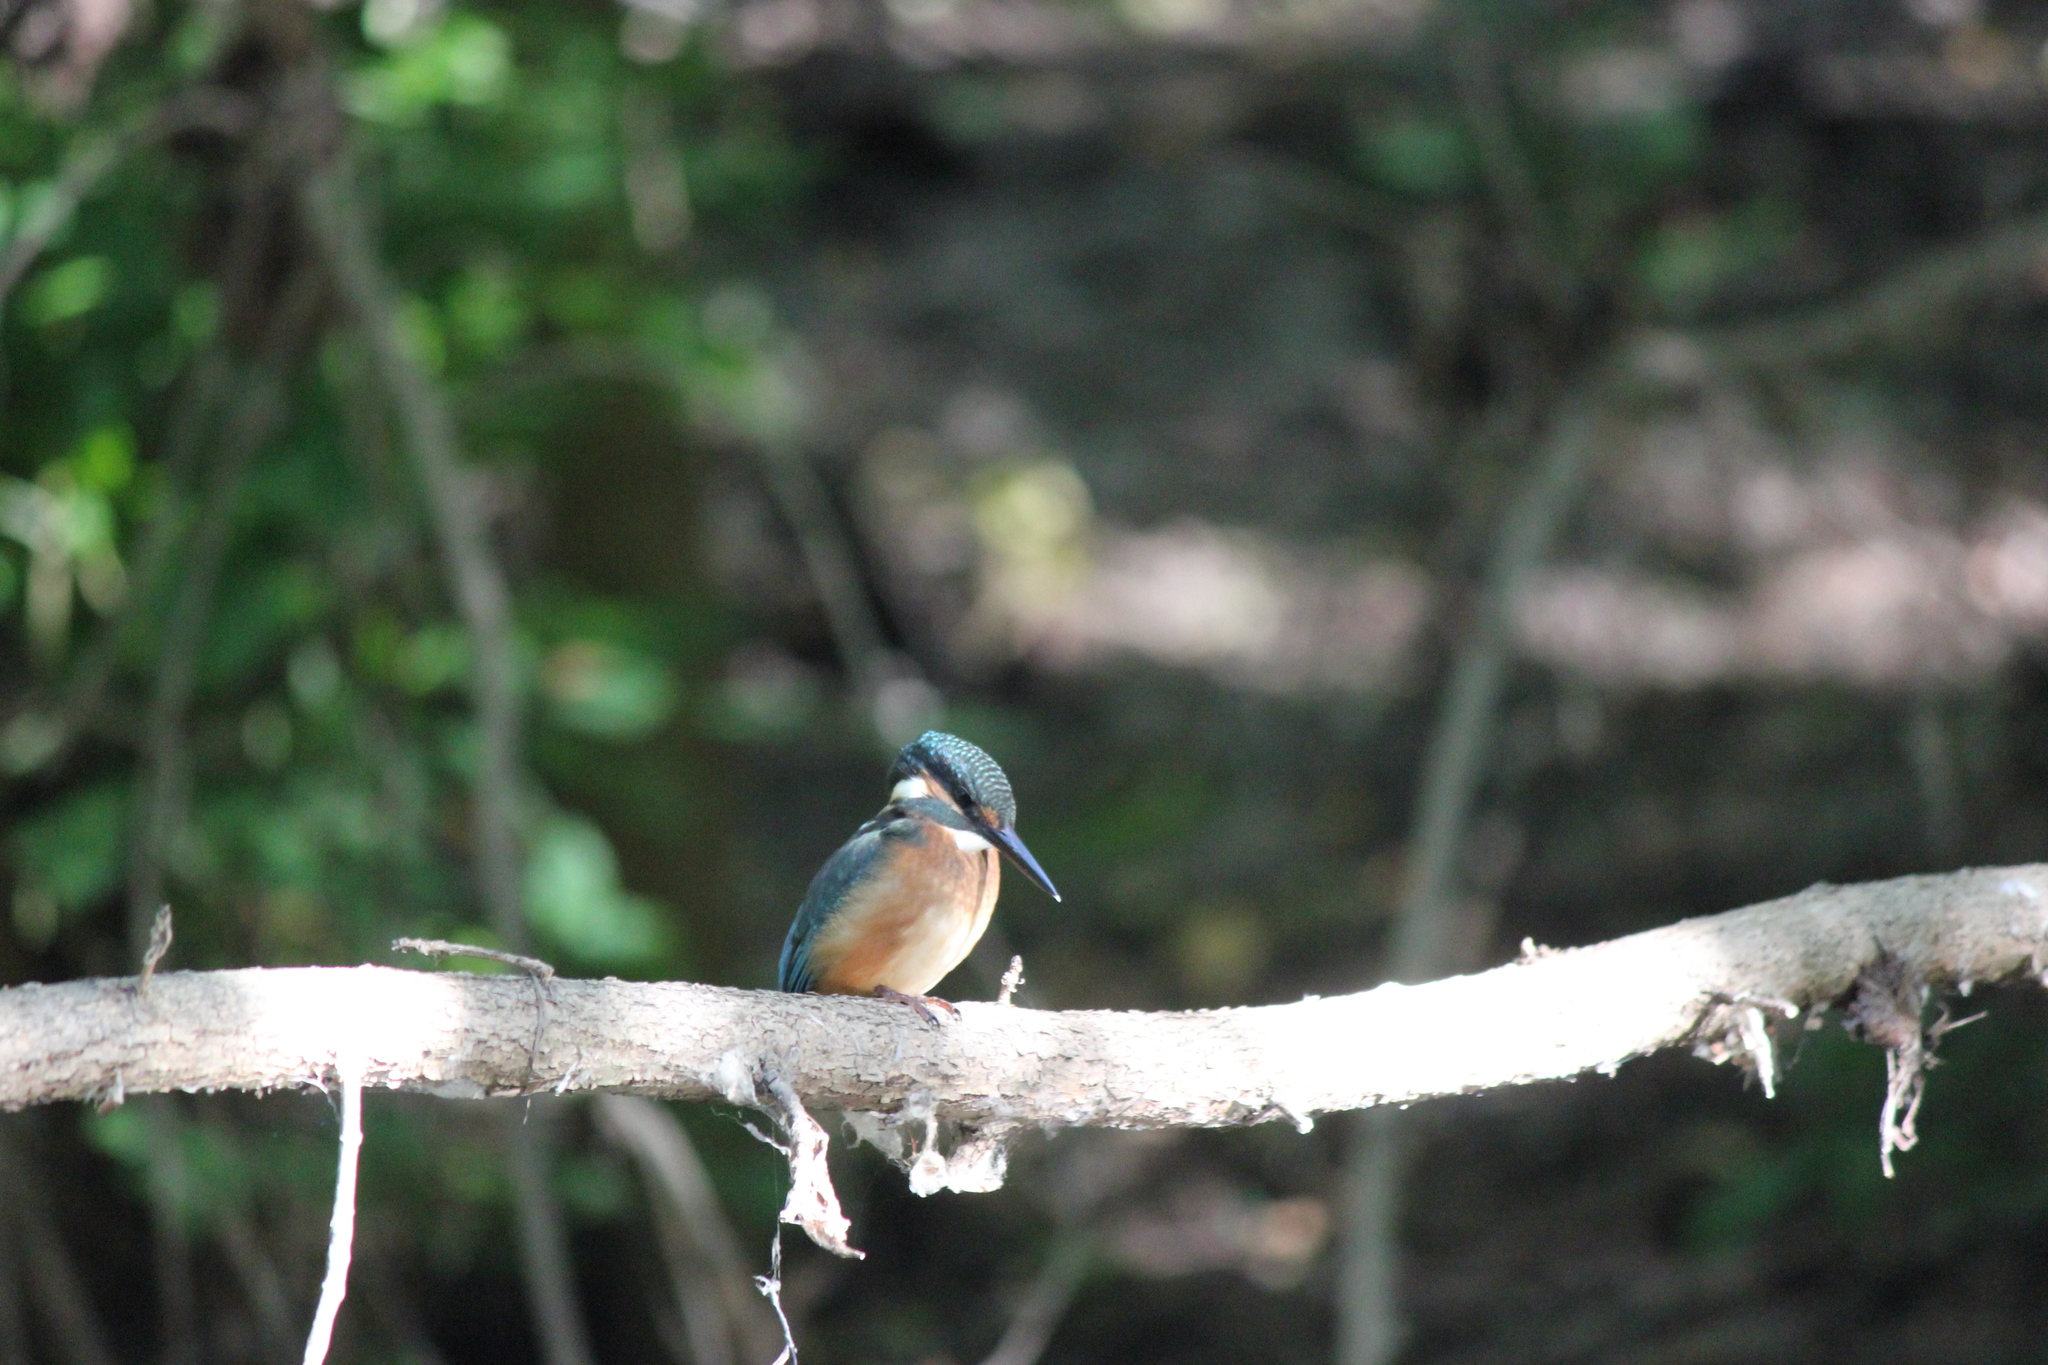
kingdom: Animalia
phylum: Chordata
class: Aves
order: Coraciiformes
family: Alcedinidae
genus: Alcedo
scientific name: Alcedo atthis
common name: Common kingfisher
